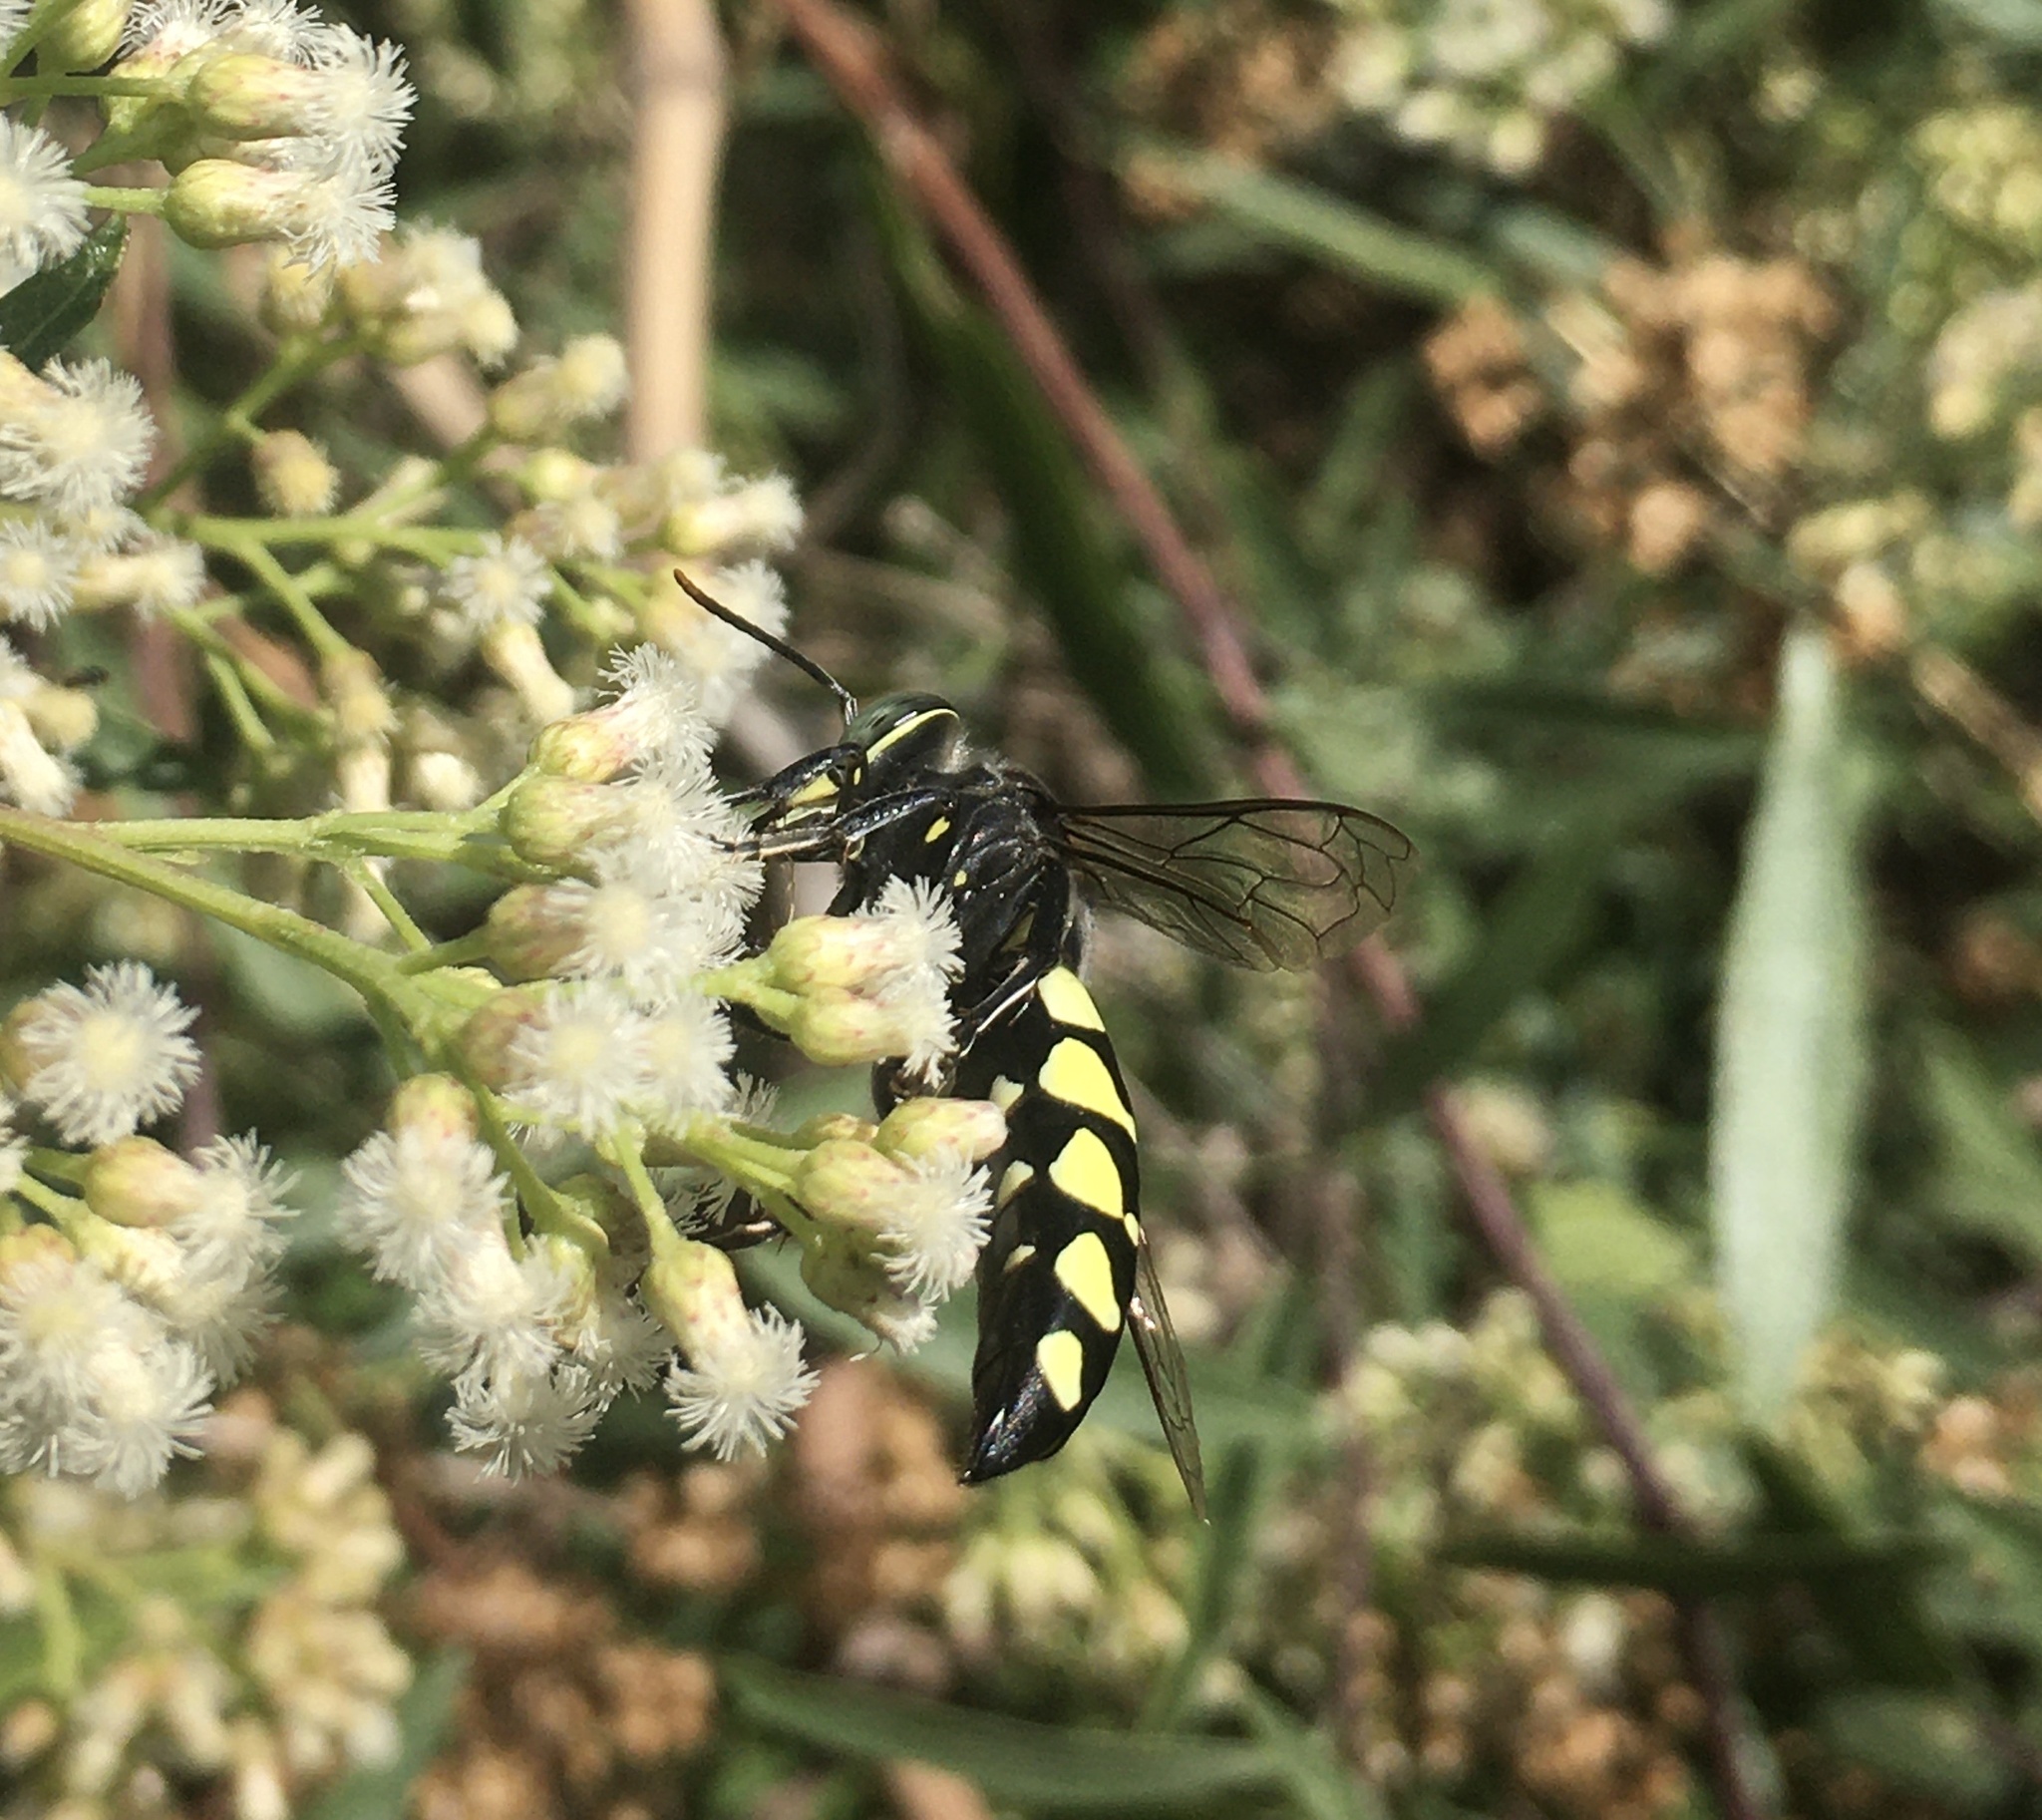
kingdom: Animalia
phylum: Arthropoda
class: Insecta
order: Hymenoptera
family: Crabronidae
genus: Stictia
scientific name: Stictia arcuata
